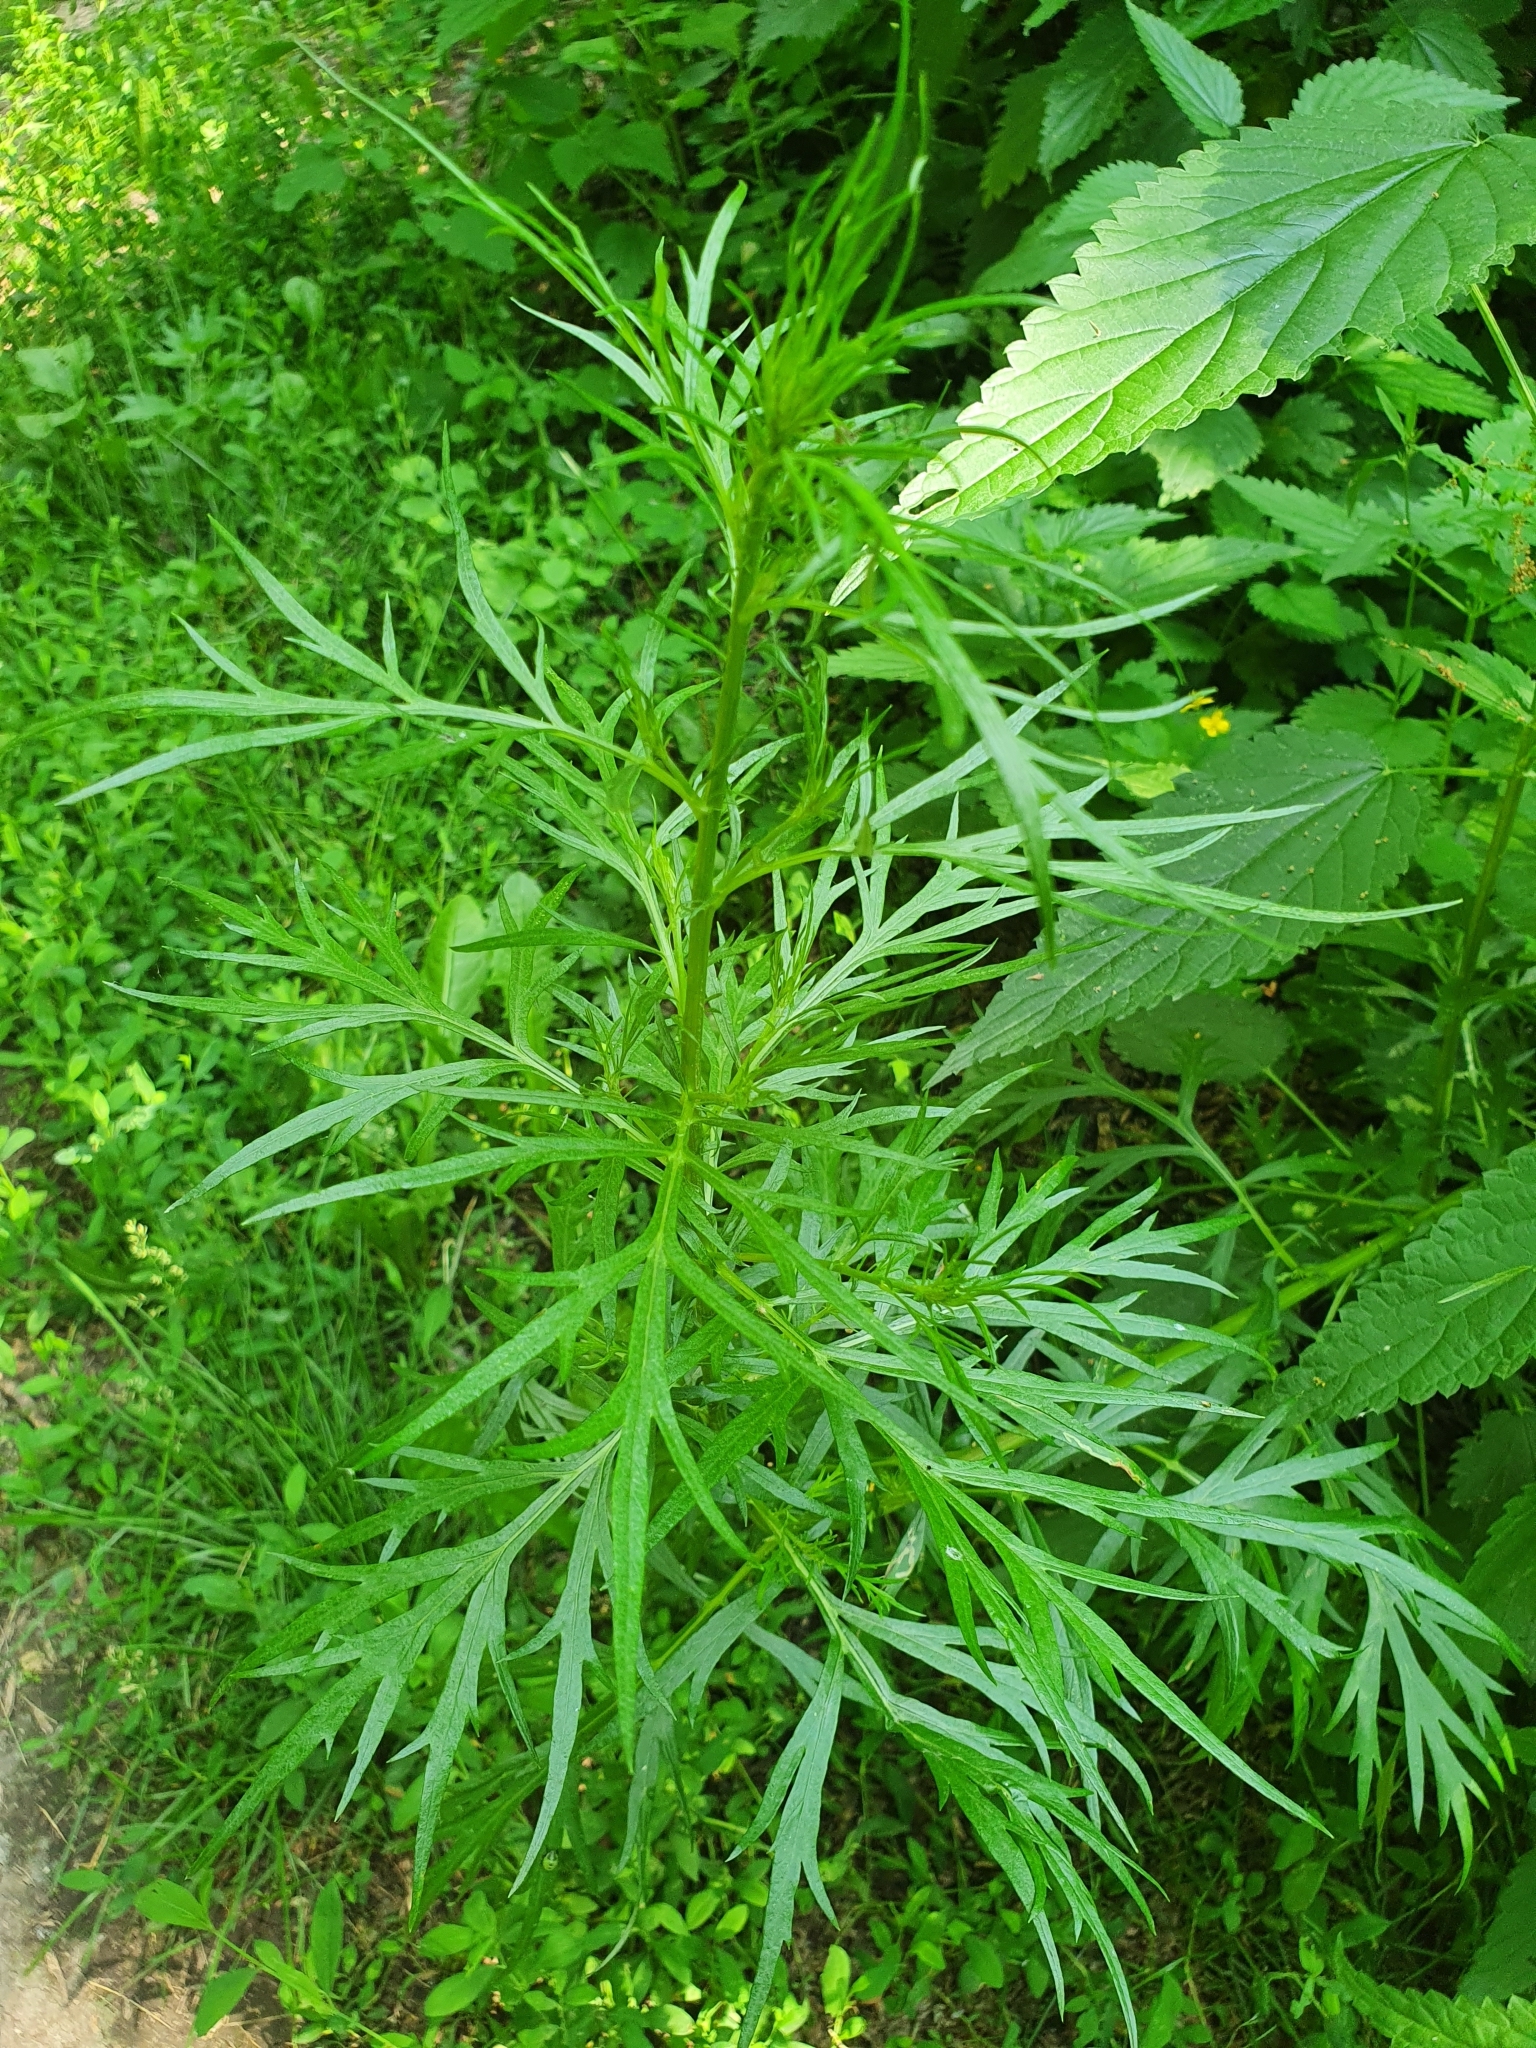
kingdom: Plantae
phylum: Tracheophyta
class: Magnoliopsida
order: Asterales
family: Asteraceae
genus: Artemisia
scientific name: Artemisia vulgaris
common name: Mugwort
